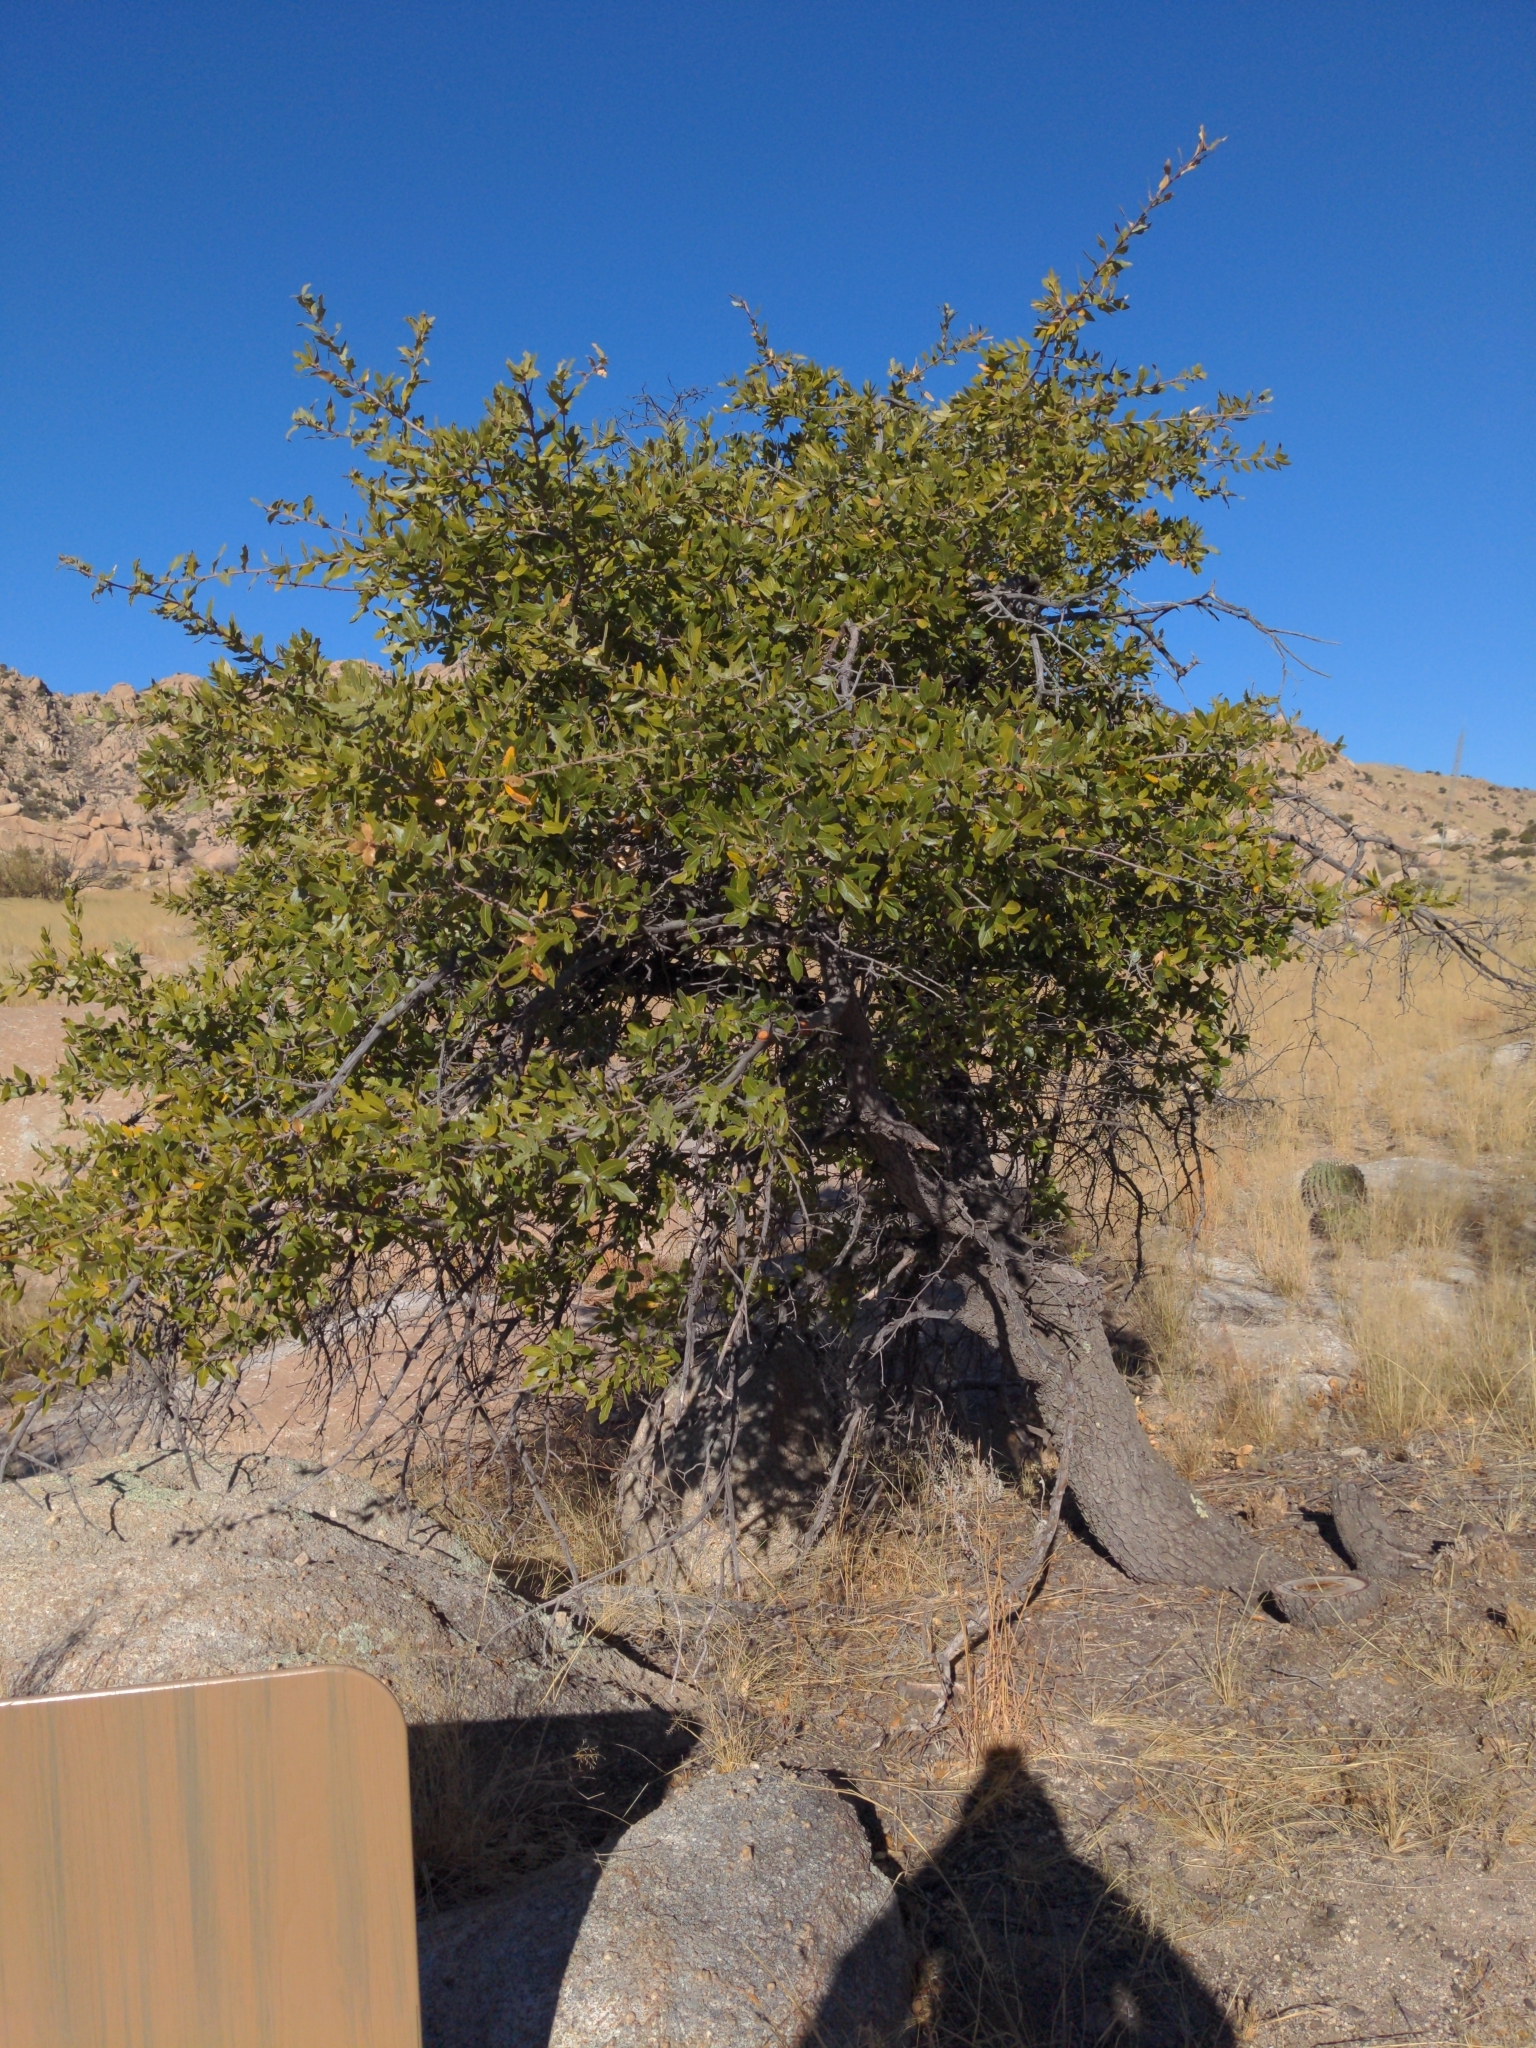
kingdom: Plantae
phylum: Tracheophyta
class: Magnoliopsida
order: Fagales
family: Fagaceae
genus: Quercus
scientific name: Quercus emoryi
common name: Emory oak
